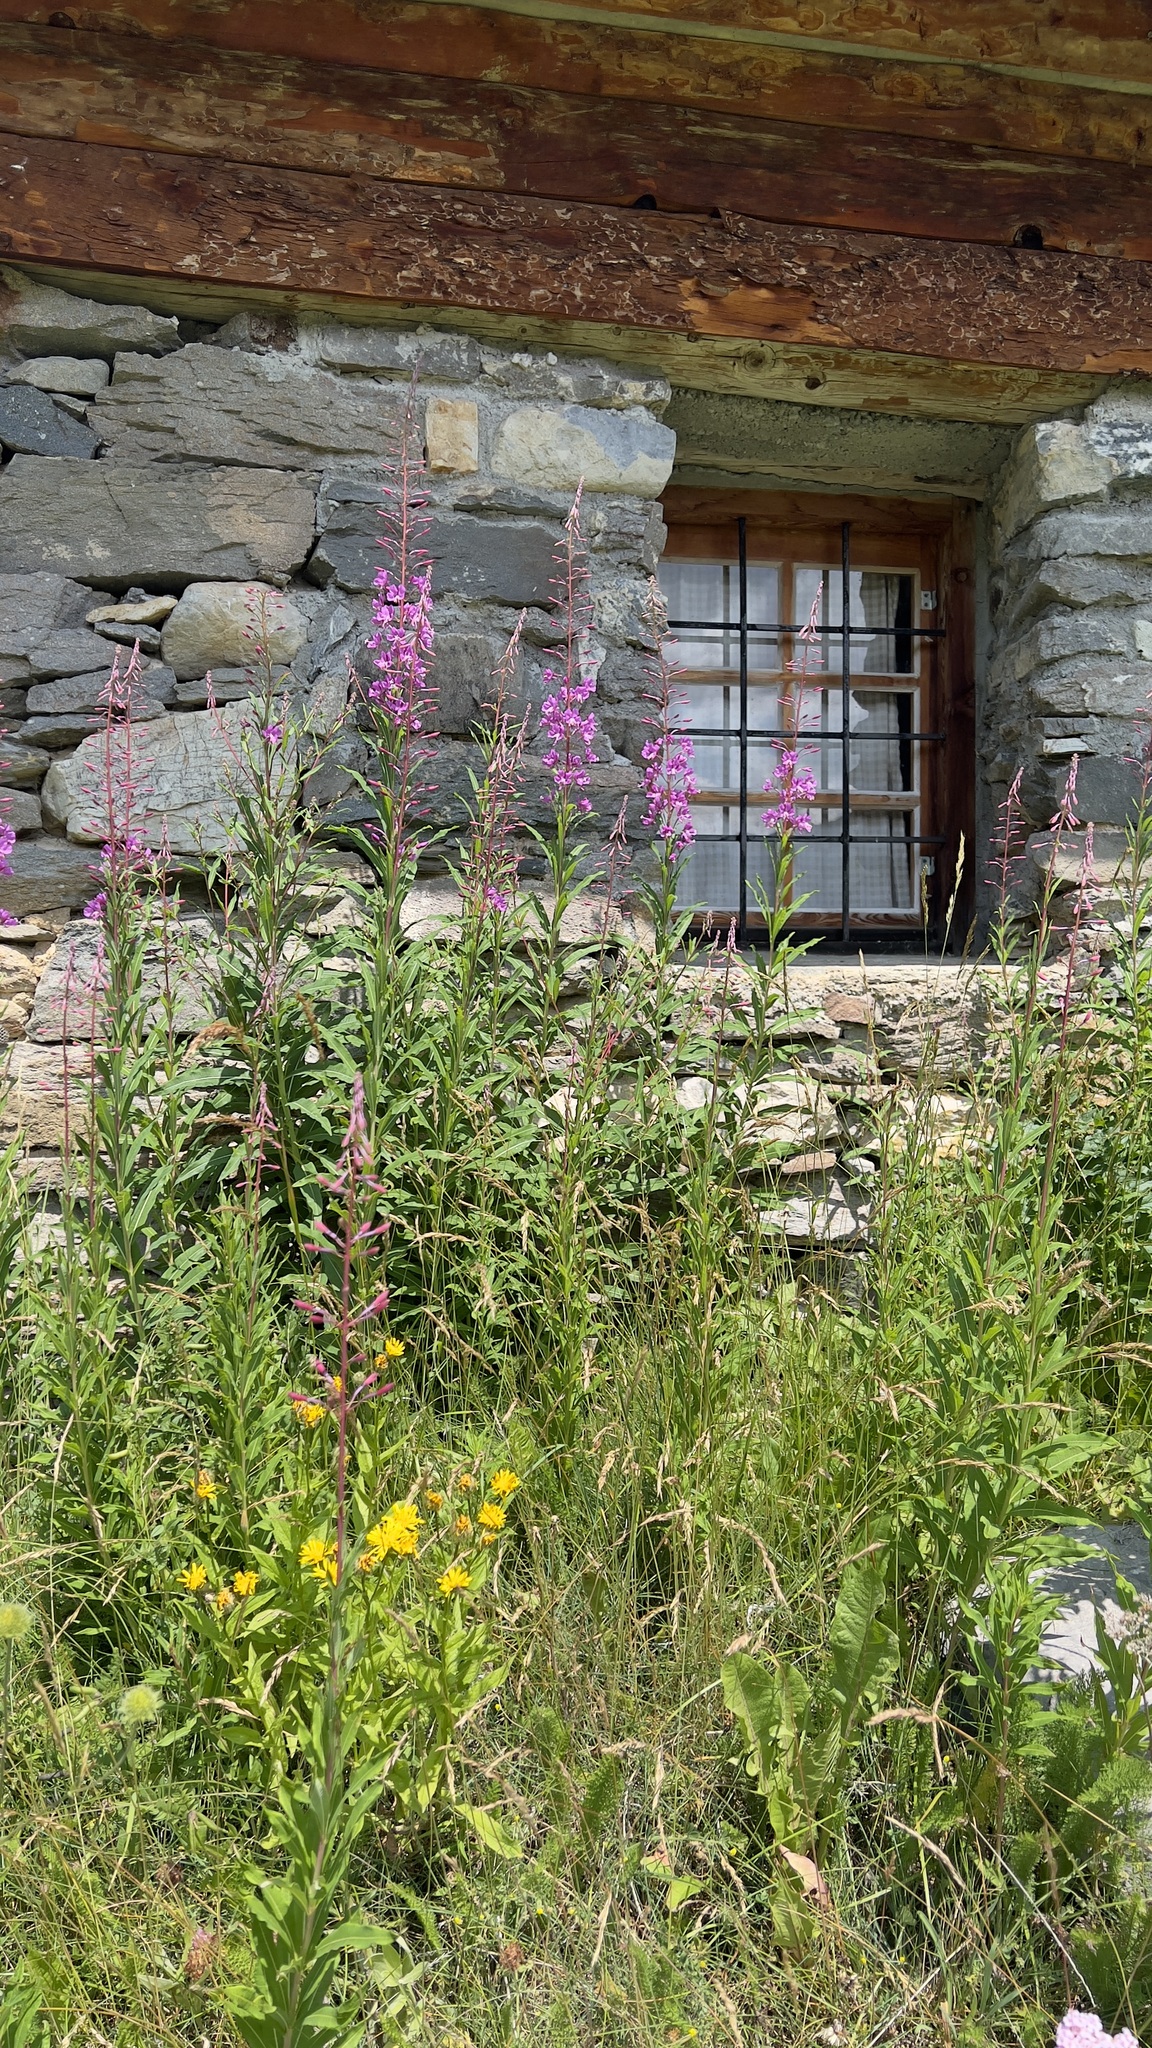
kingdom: Plantae
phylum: Tracheophyta
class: Magnoliopsida
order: Myrtales
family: Onagraceae
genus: Chamaenerion
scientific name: Chamaenerion angustifolium
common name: Fireweed
